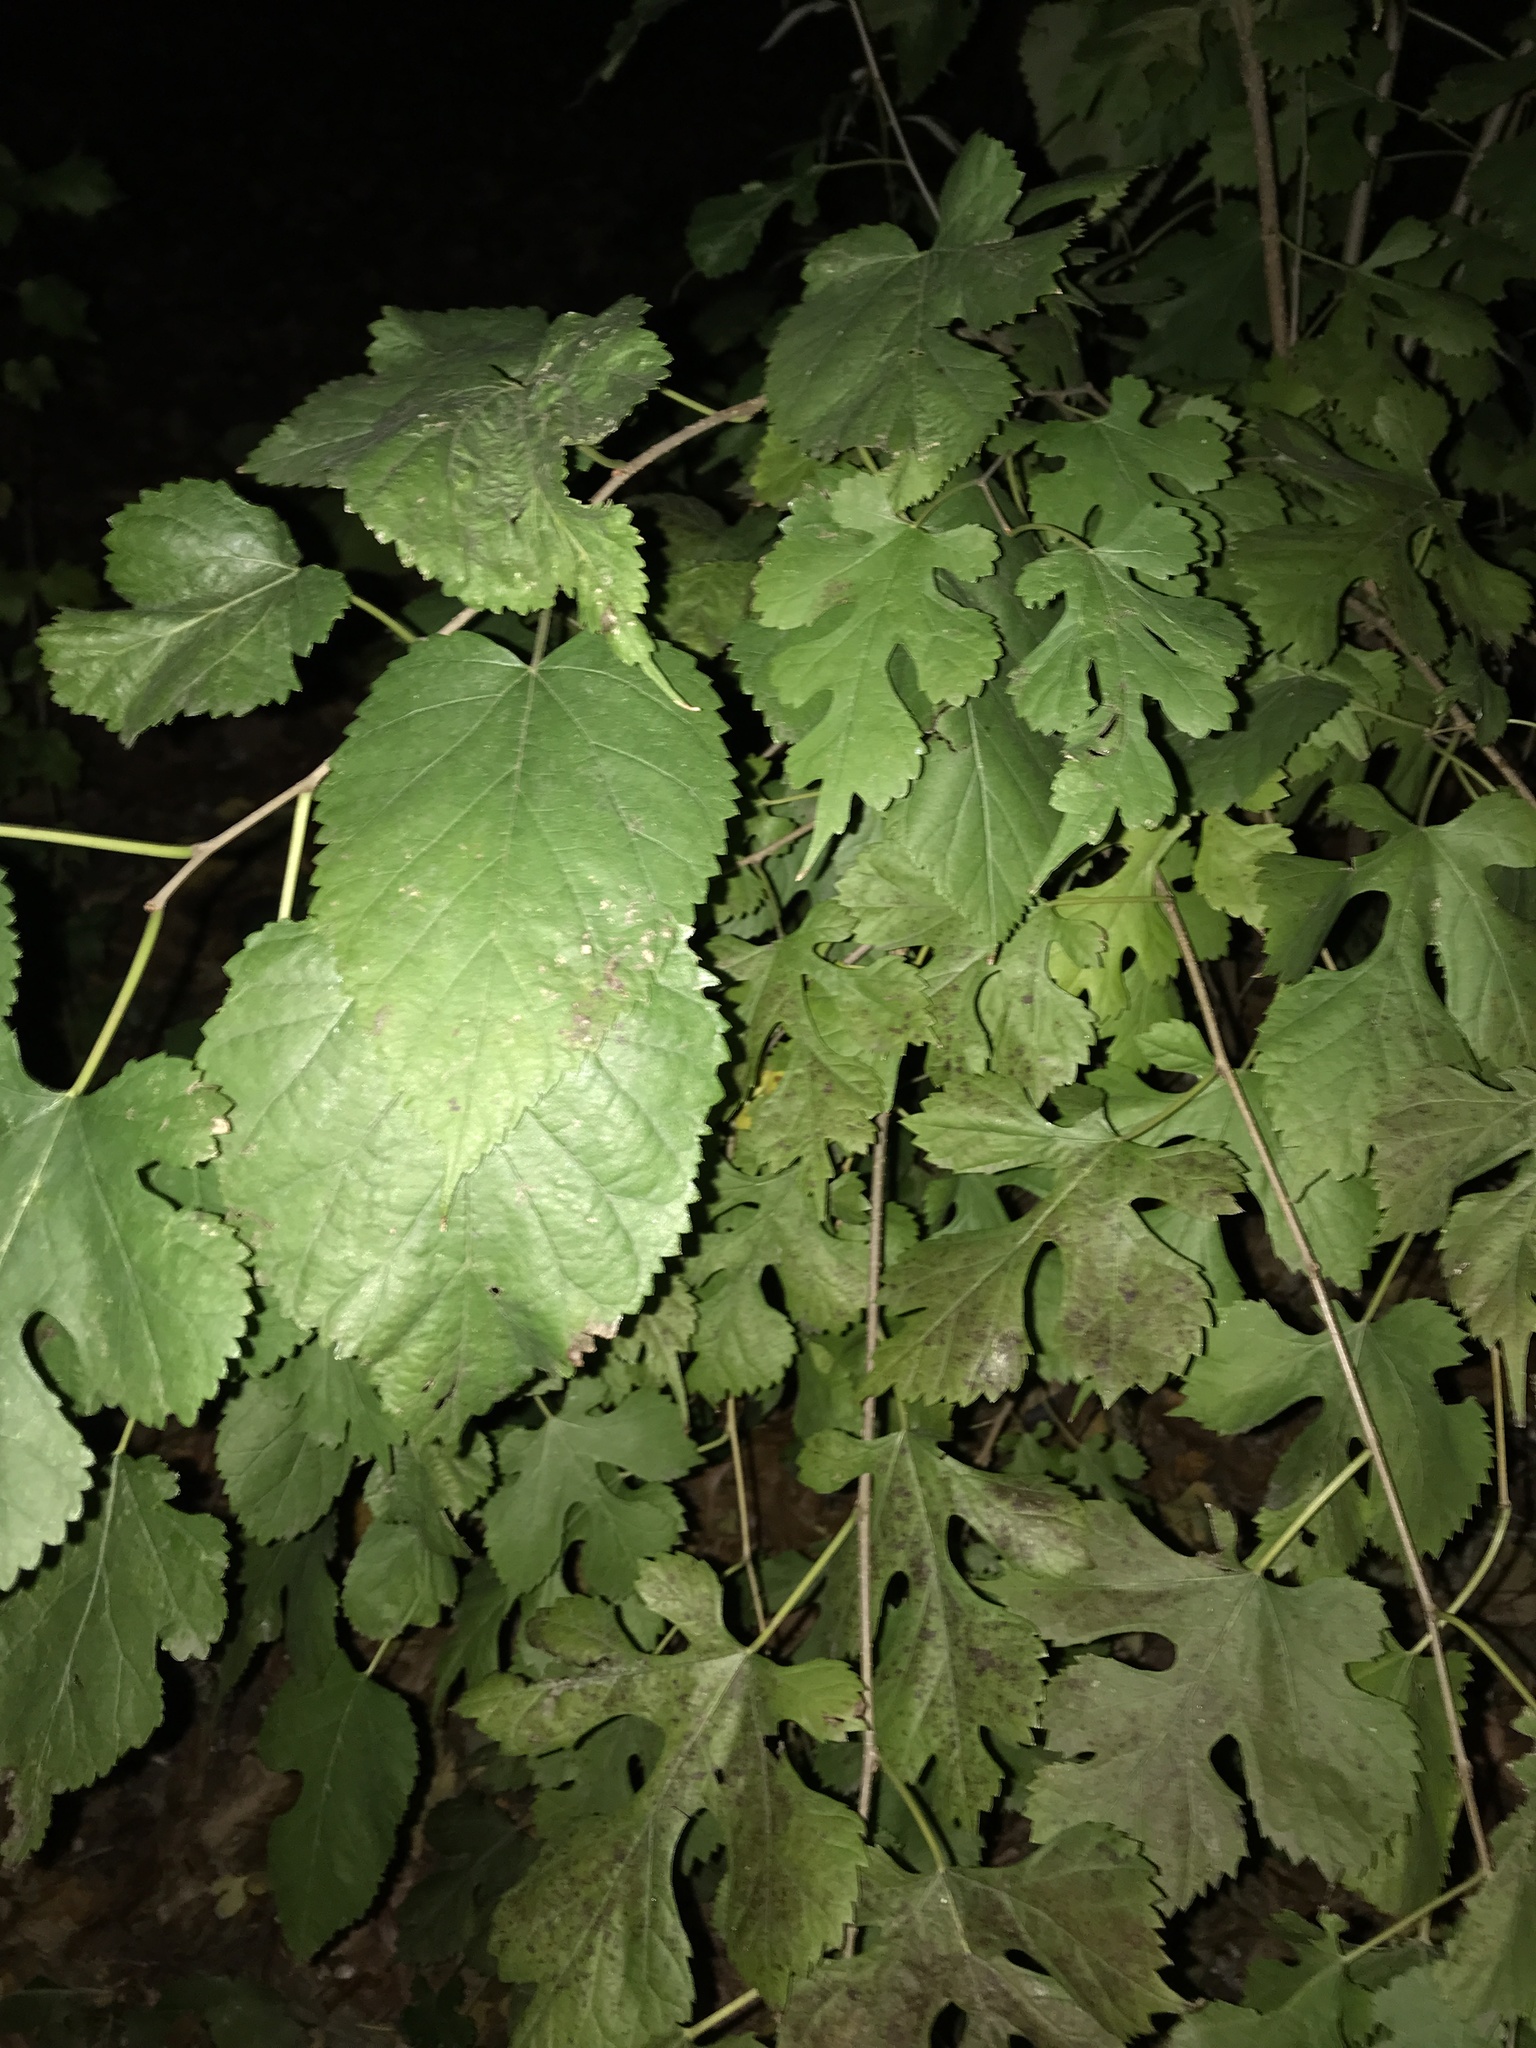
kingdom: Plantae
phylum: Tracheophyta
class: Magnoliopsida
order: Rosales
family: Moraceae
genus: Morus
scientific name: Morus alba
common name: White mulberry
